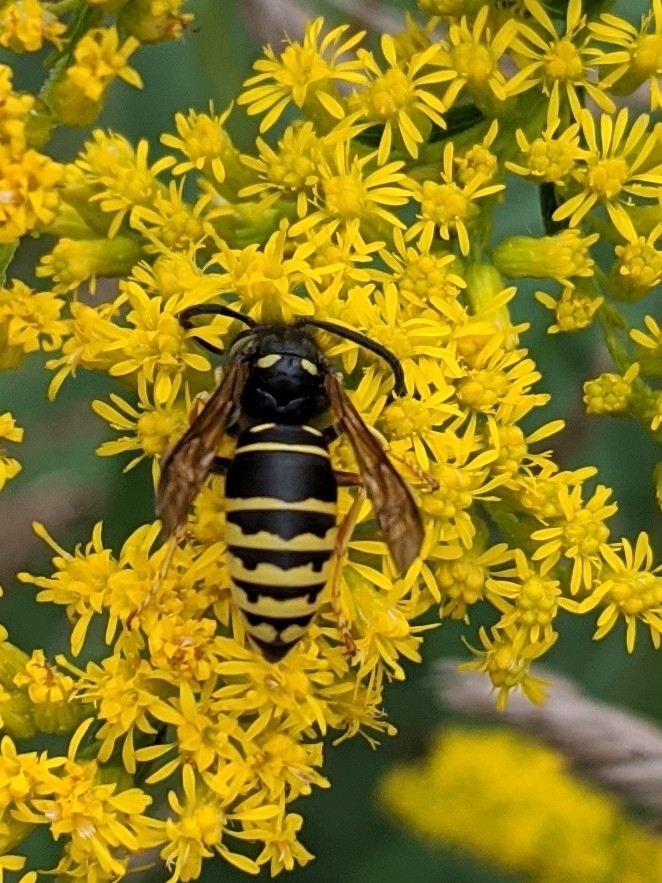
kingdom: Animalia
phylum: Arthropoda
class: Insecta
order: Hymenoptera
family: Vespidae
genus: Vespula
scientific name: Vespula vidua
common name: Widow yellowjacket
